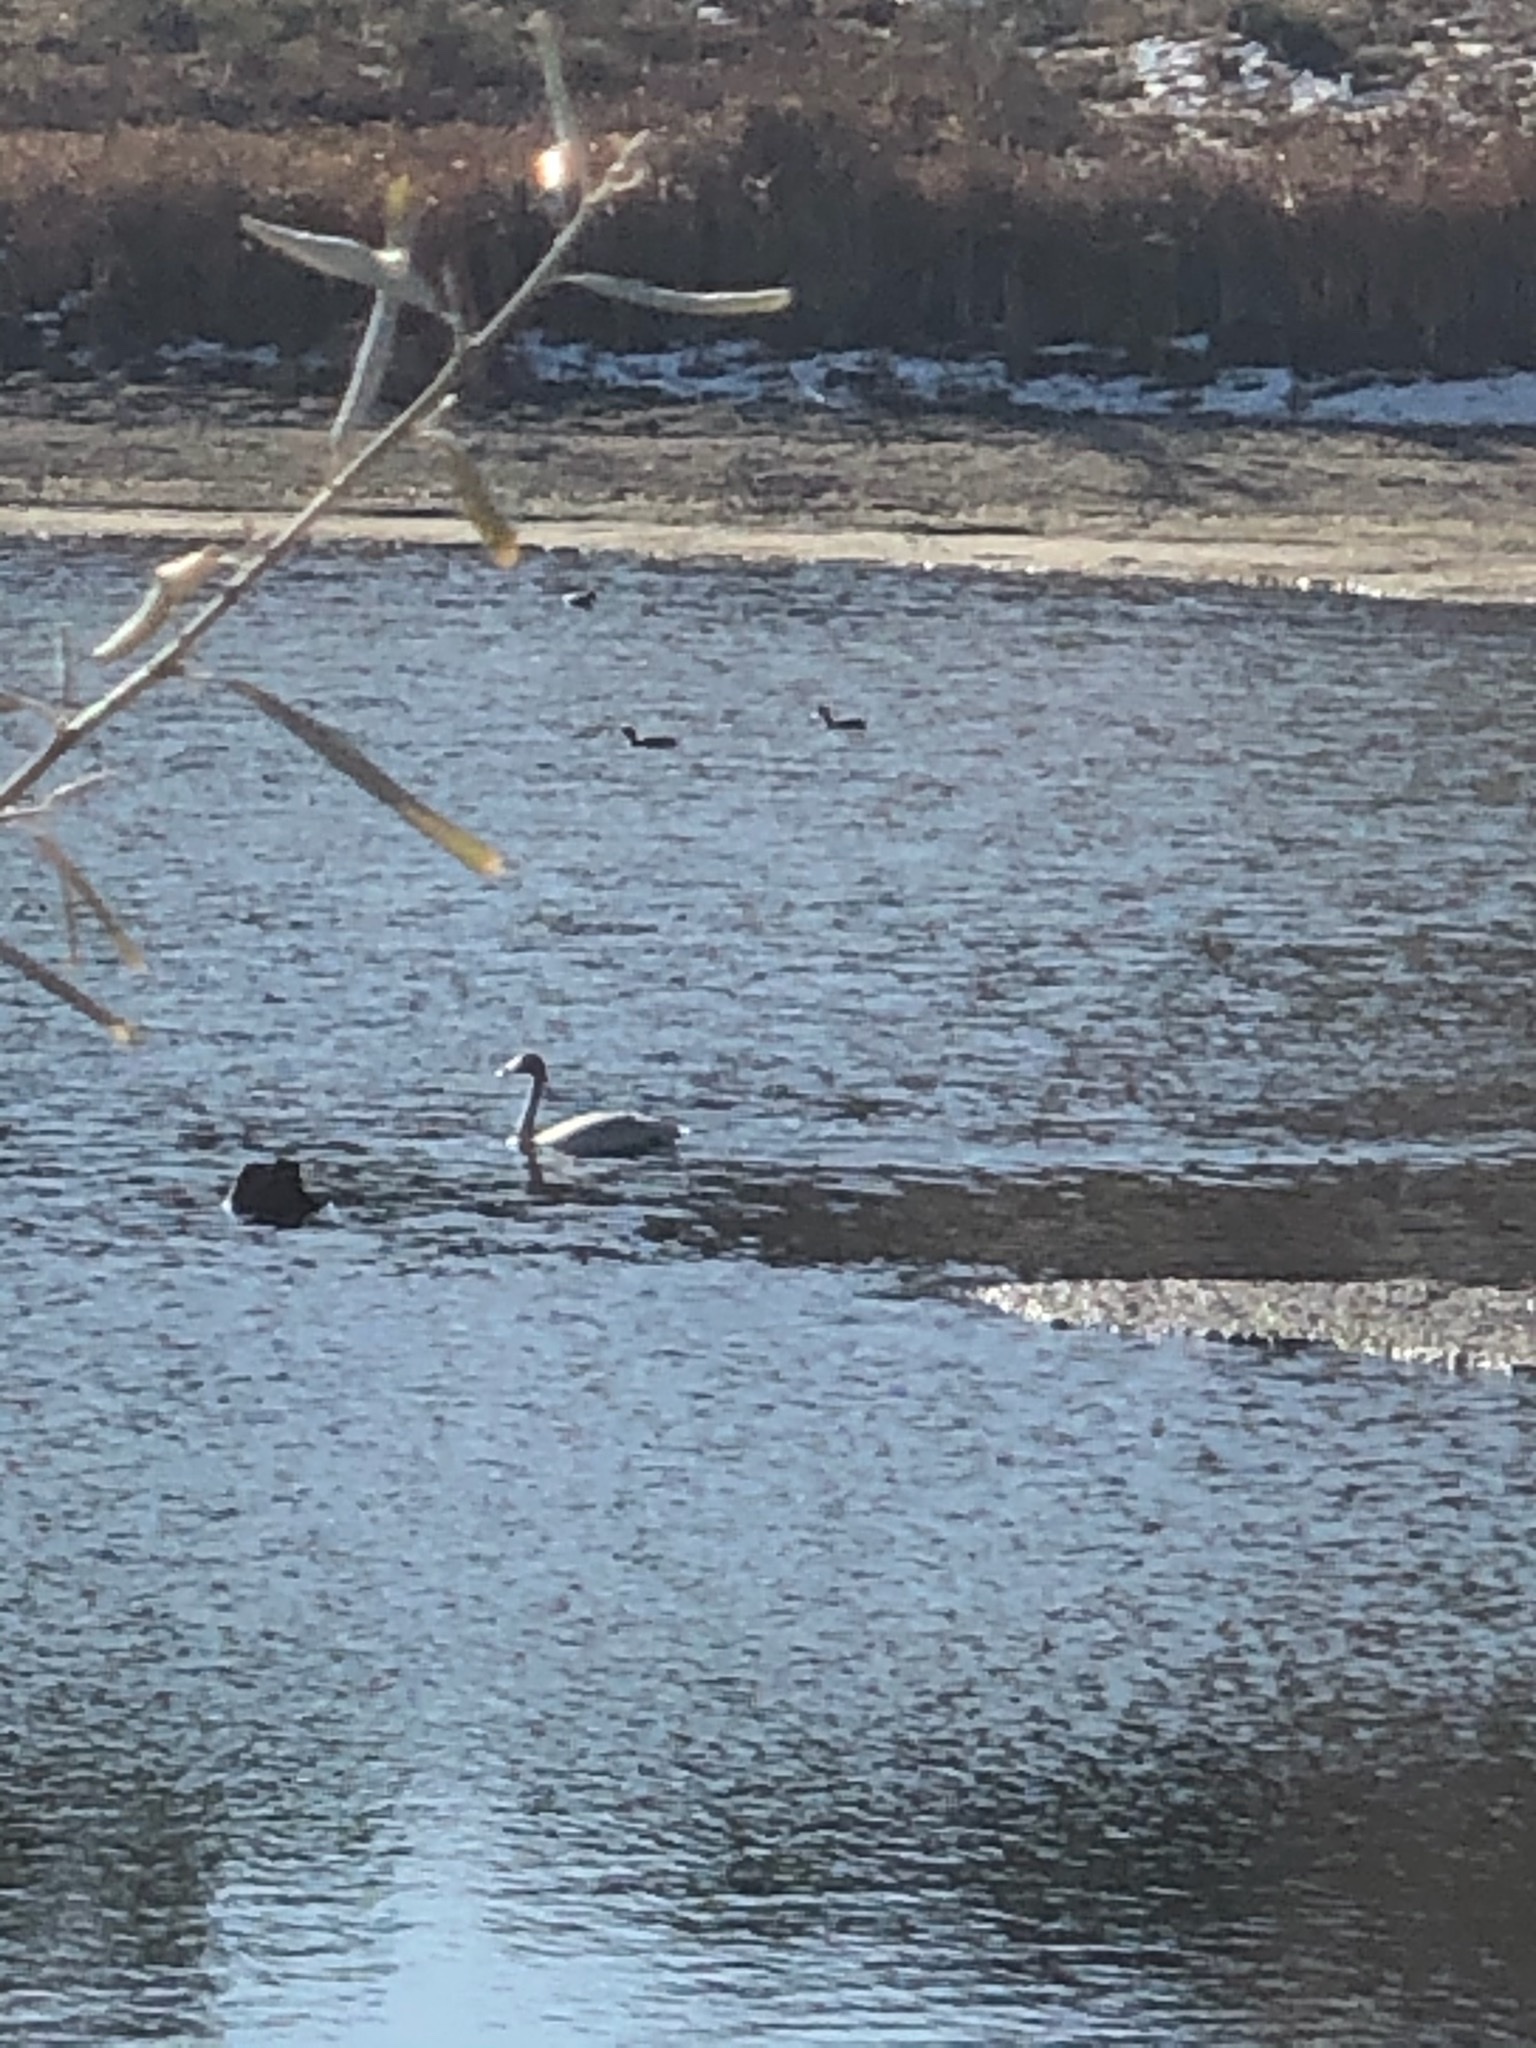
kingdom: Animalia
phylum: Chordata
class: Aves
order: Anseriformes
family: Anatidae
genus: Cygnus
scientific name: Cygnus columbianus
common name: Tundra swan
